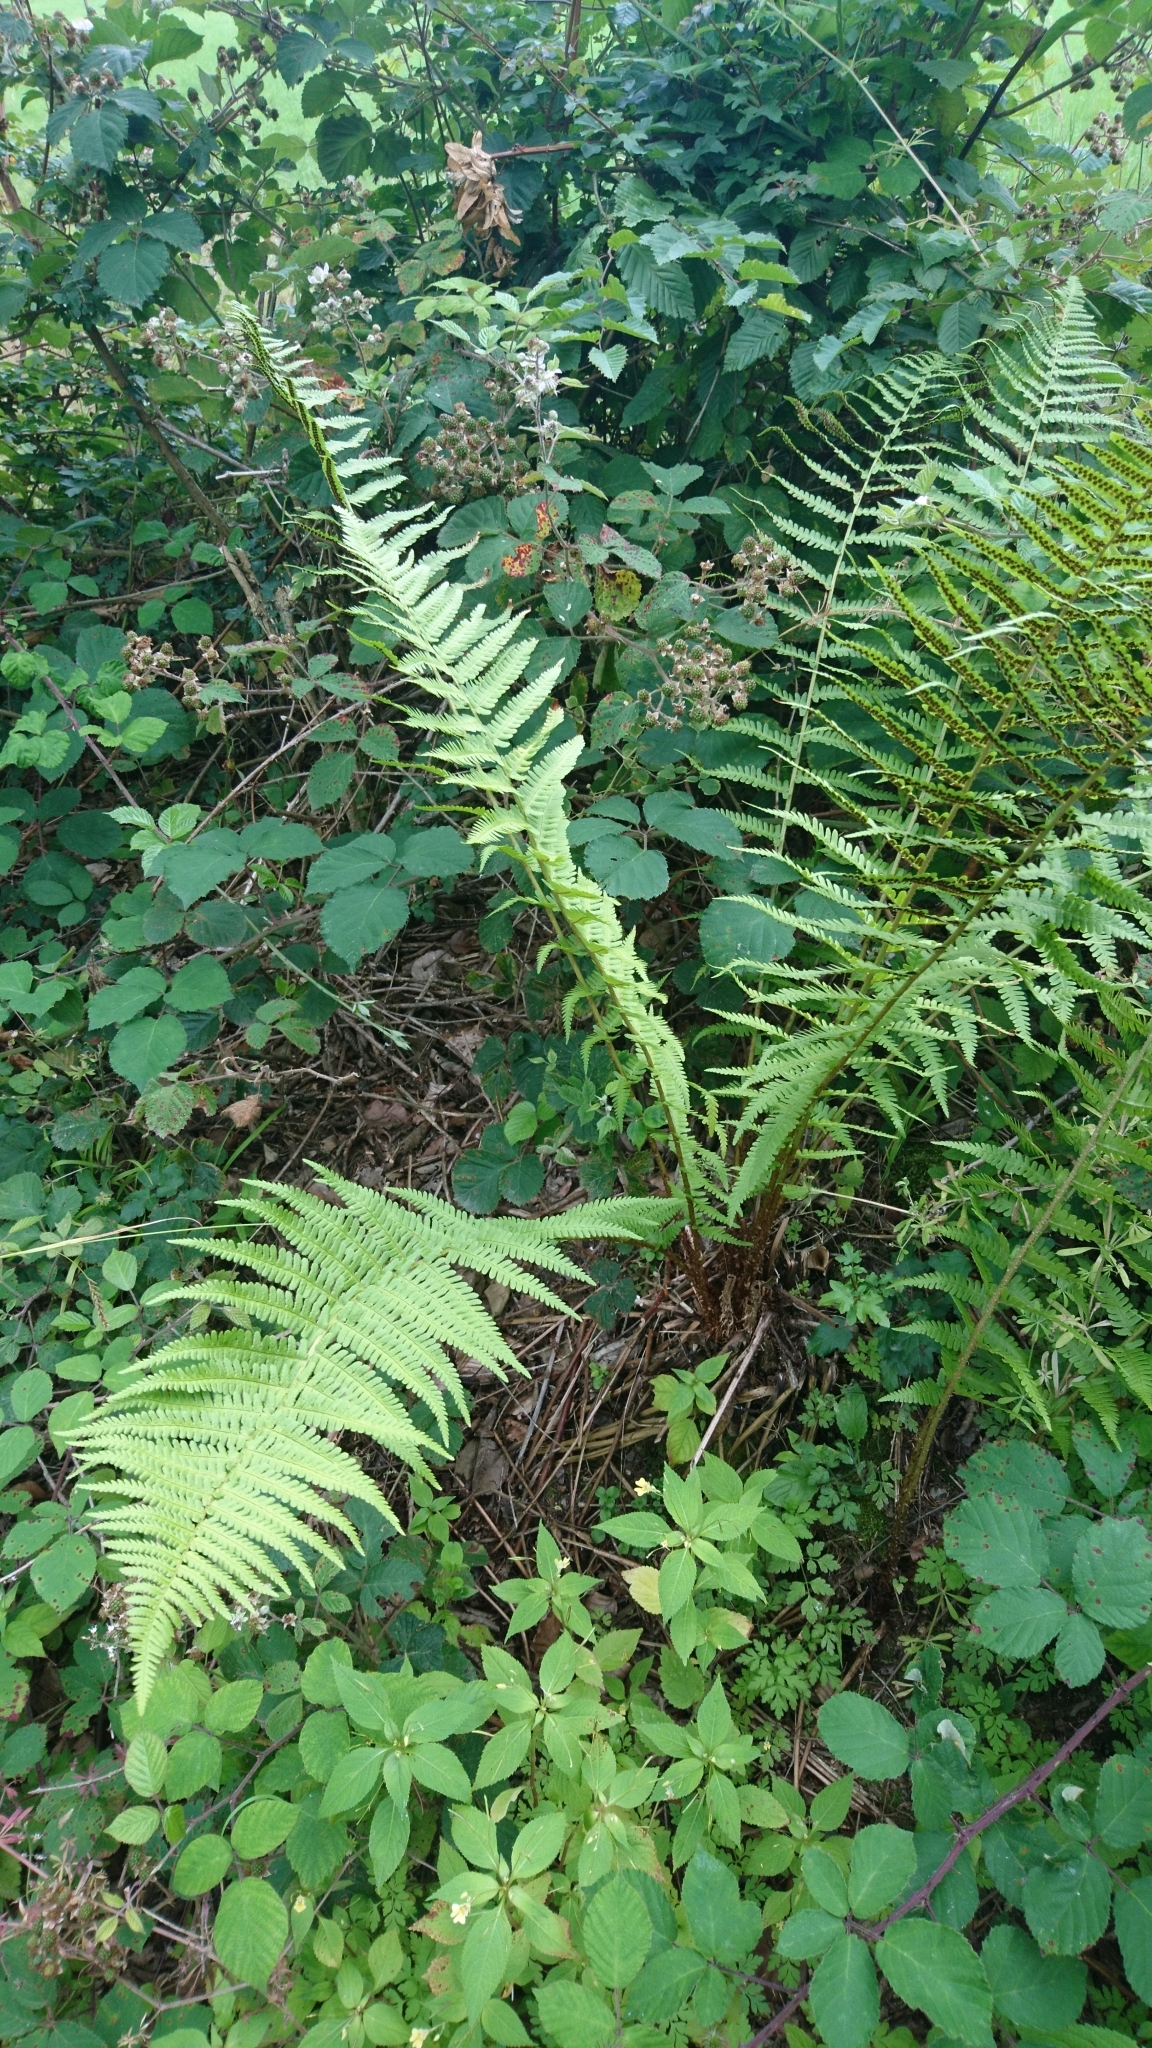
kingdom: Plantae
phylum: Tracheophyta
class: Polypodiopsida
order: Polypodiales
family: Dryopteridaceae
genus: Dryopteris
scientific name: Dryopteris filix-mas
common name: Male fern
